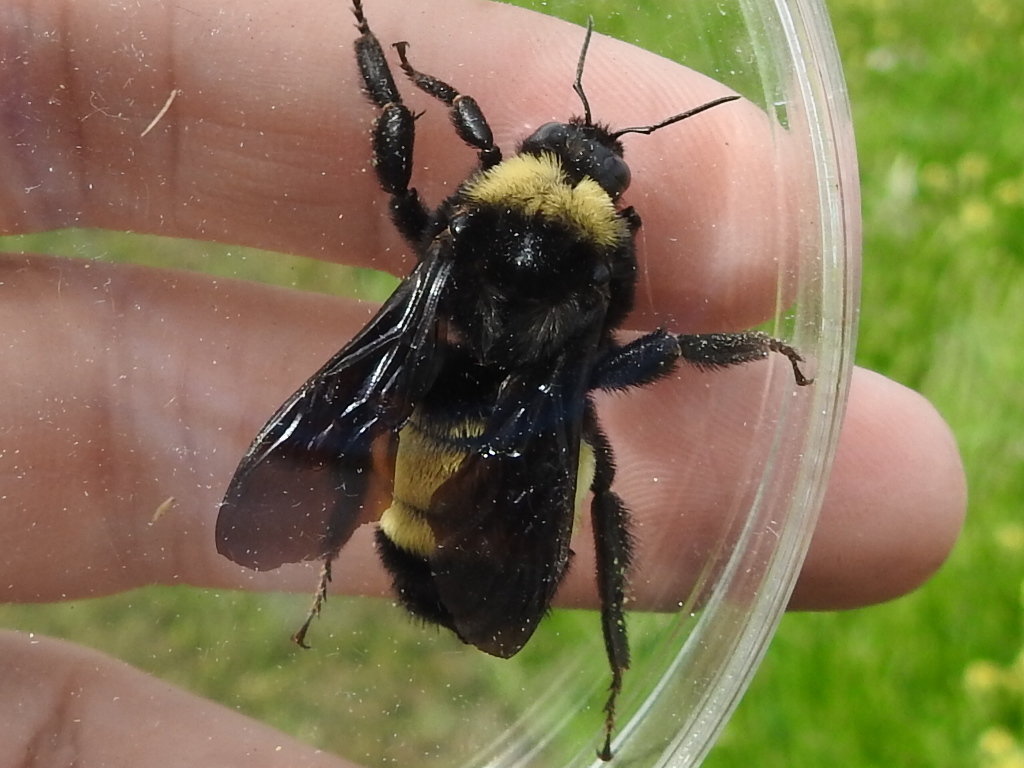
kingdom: Animalia
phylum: Arthropoda
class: Insecta
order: Hymenoptera
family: Apidae
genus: Bombus
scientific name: Bombus pensylvanicus
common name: Bumble bee
